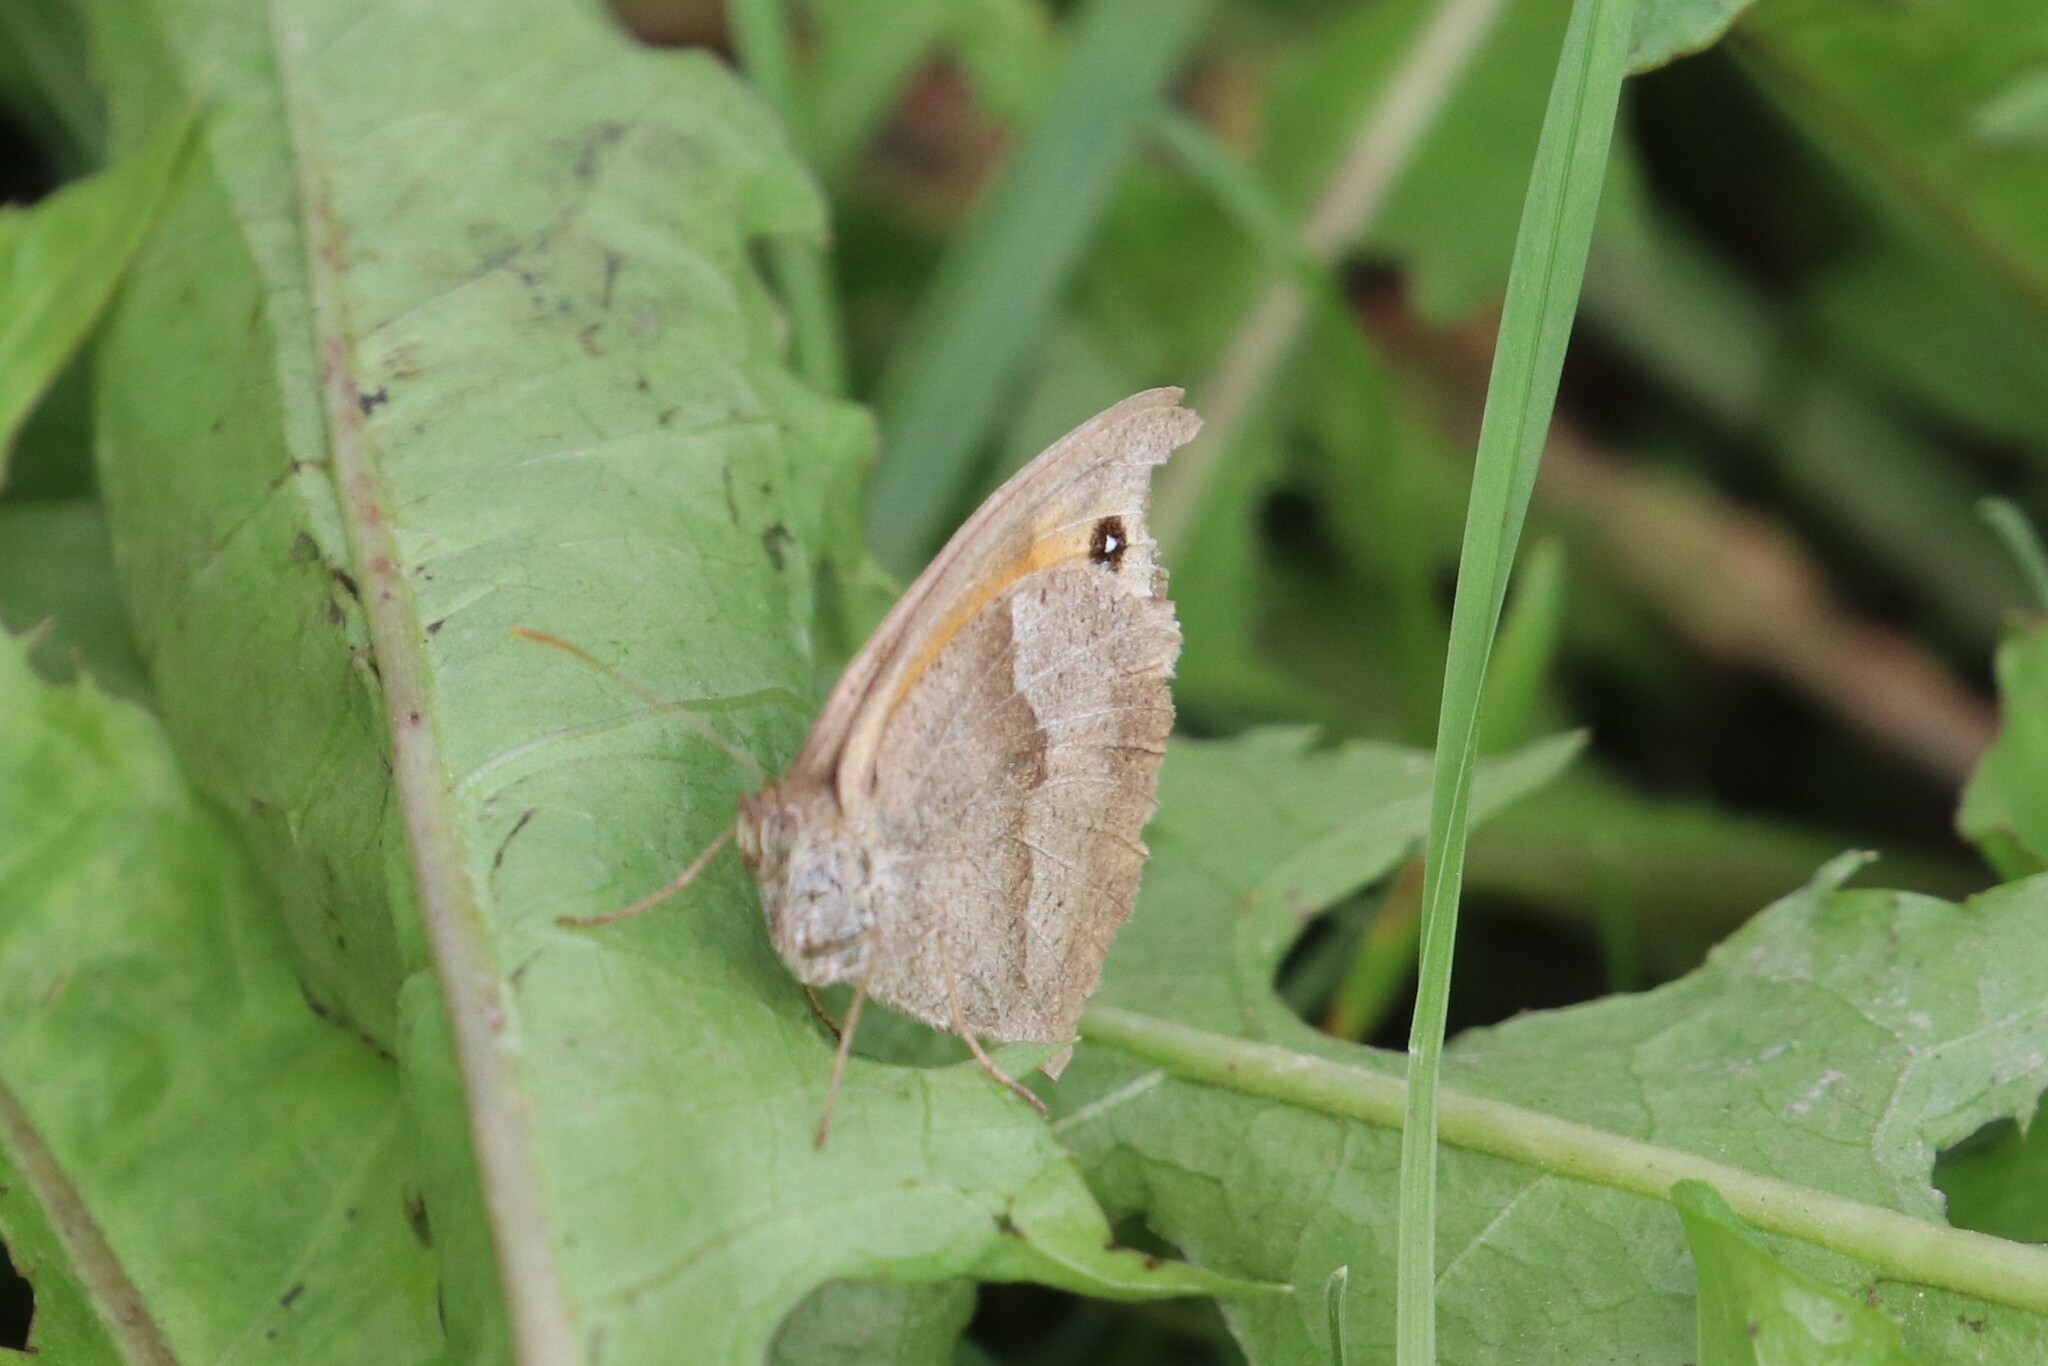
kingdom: Animalia
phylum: Arthropoda
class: Insecta
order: Lepidoptera
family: Nymphalidae
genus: Maniola
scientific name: Maniola jurtina
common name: Meadow brown
